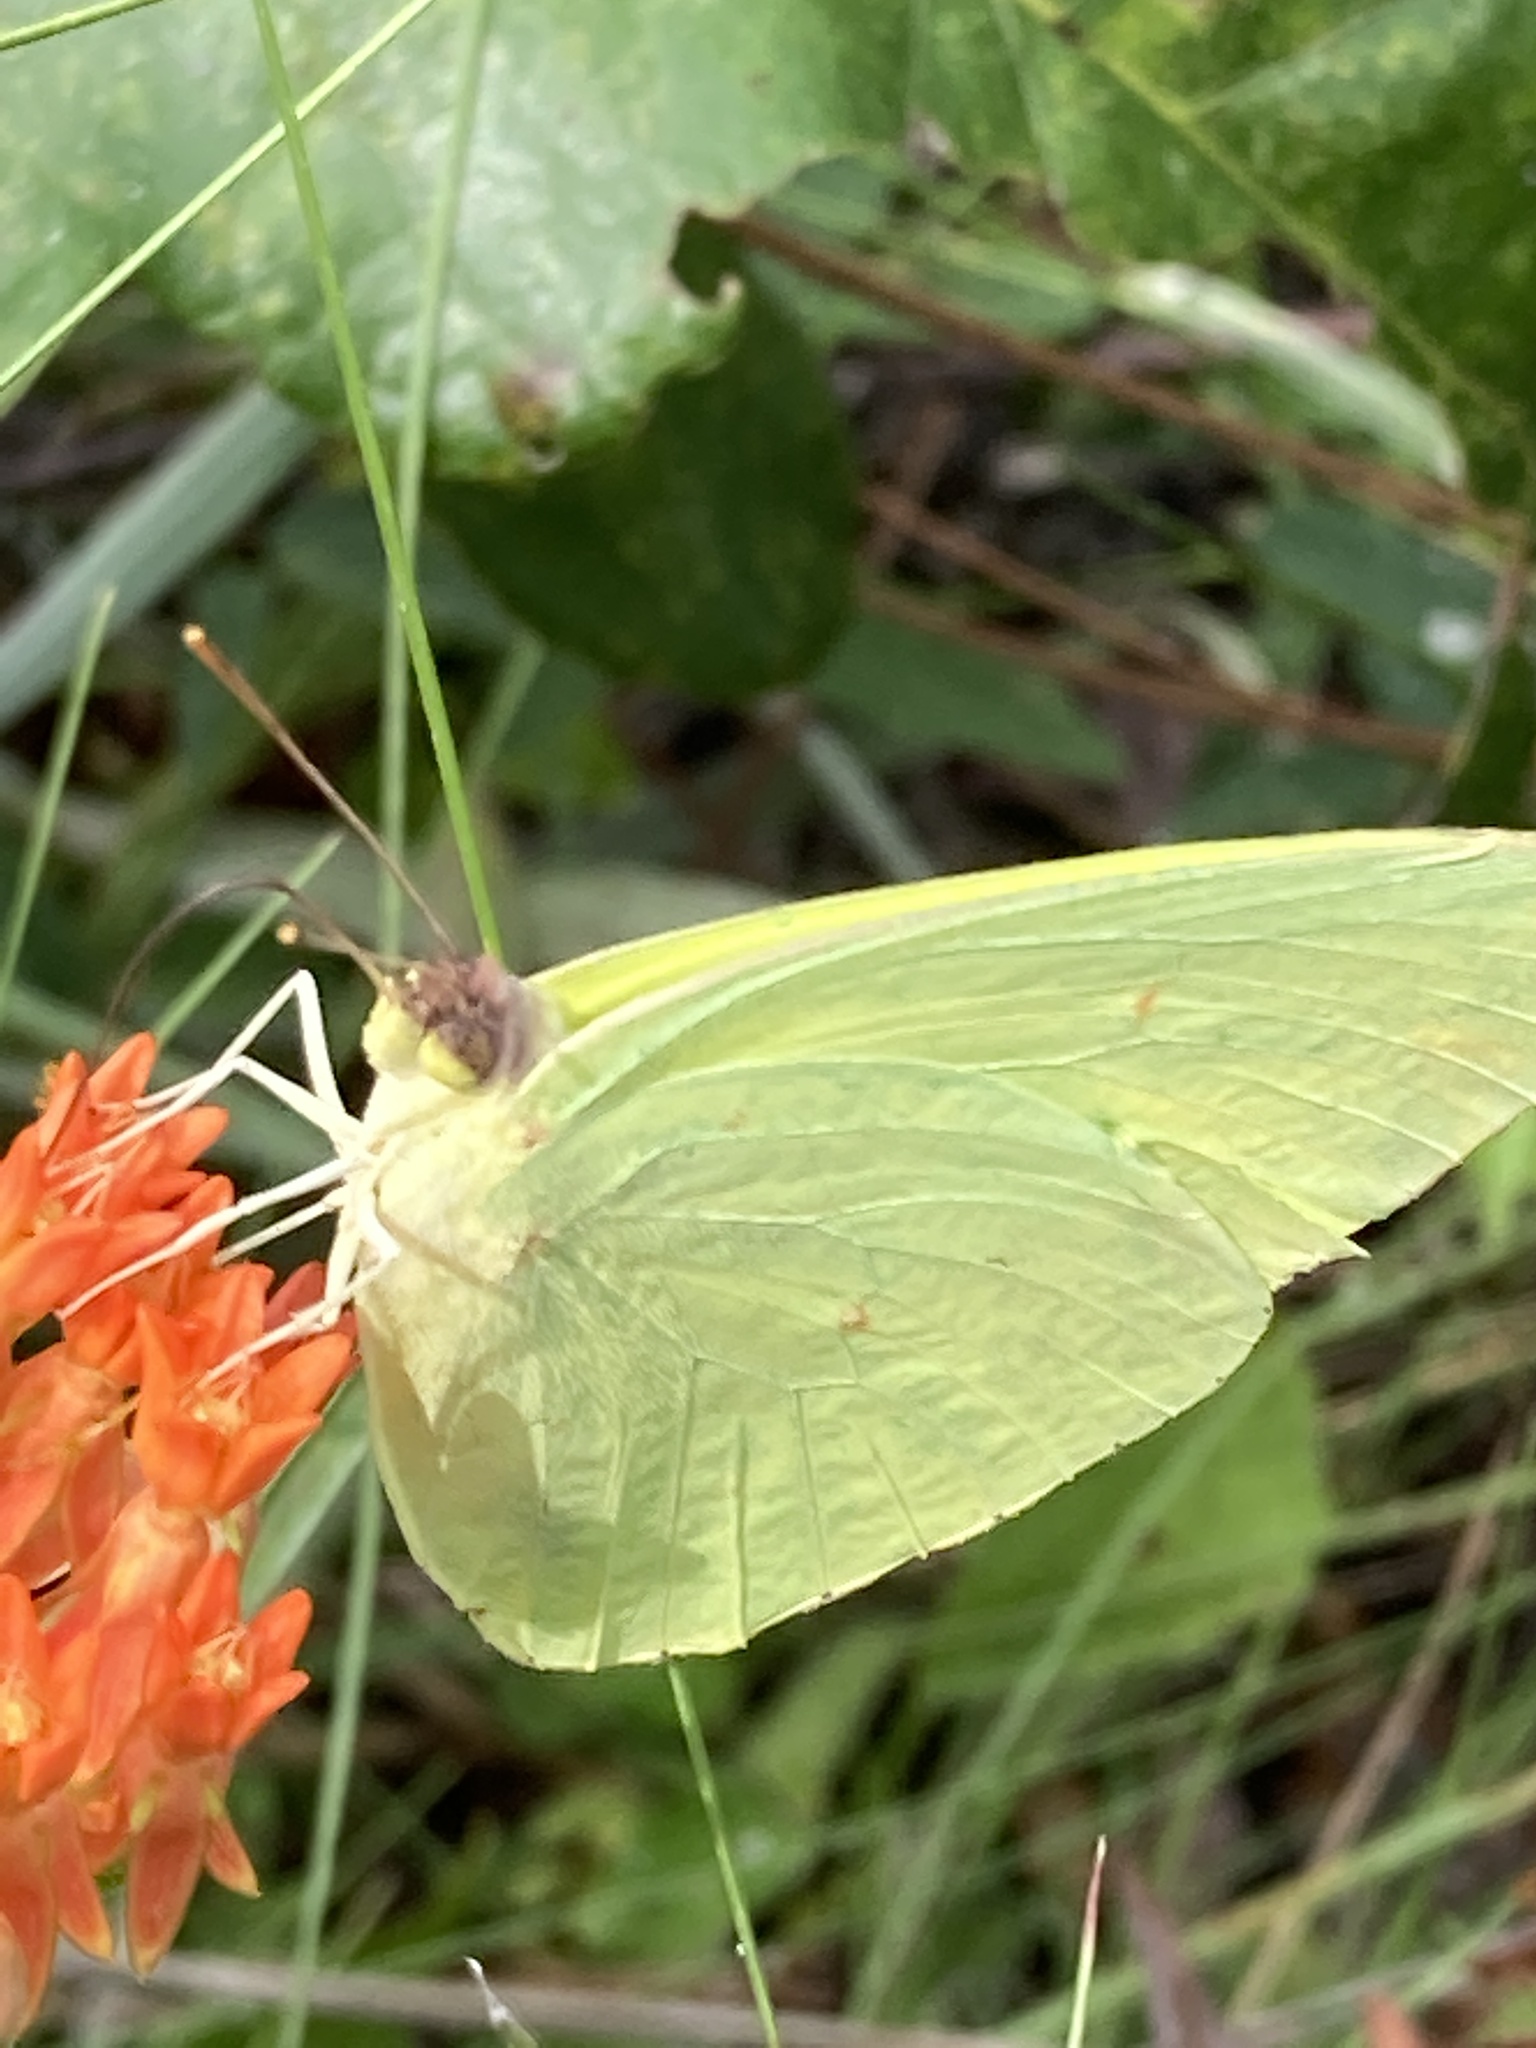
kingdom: Animalia
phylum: Arthropoda
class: Insecta
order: Lepidoptera
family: Pieridae
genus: Phoebis
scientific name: Phoebis sennae
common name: Cloudless sulphur
